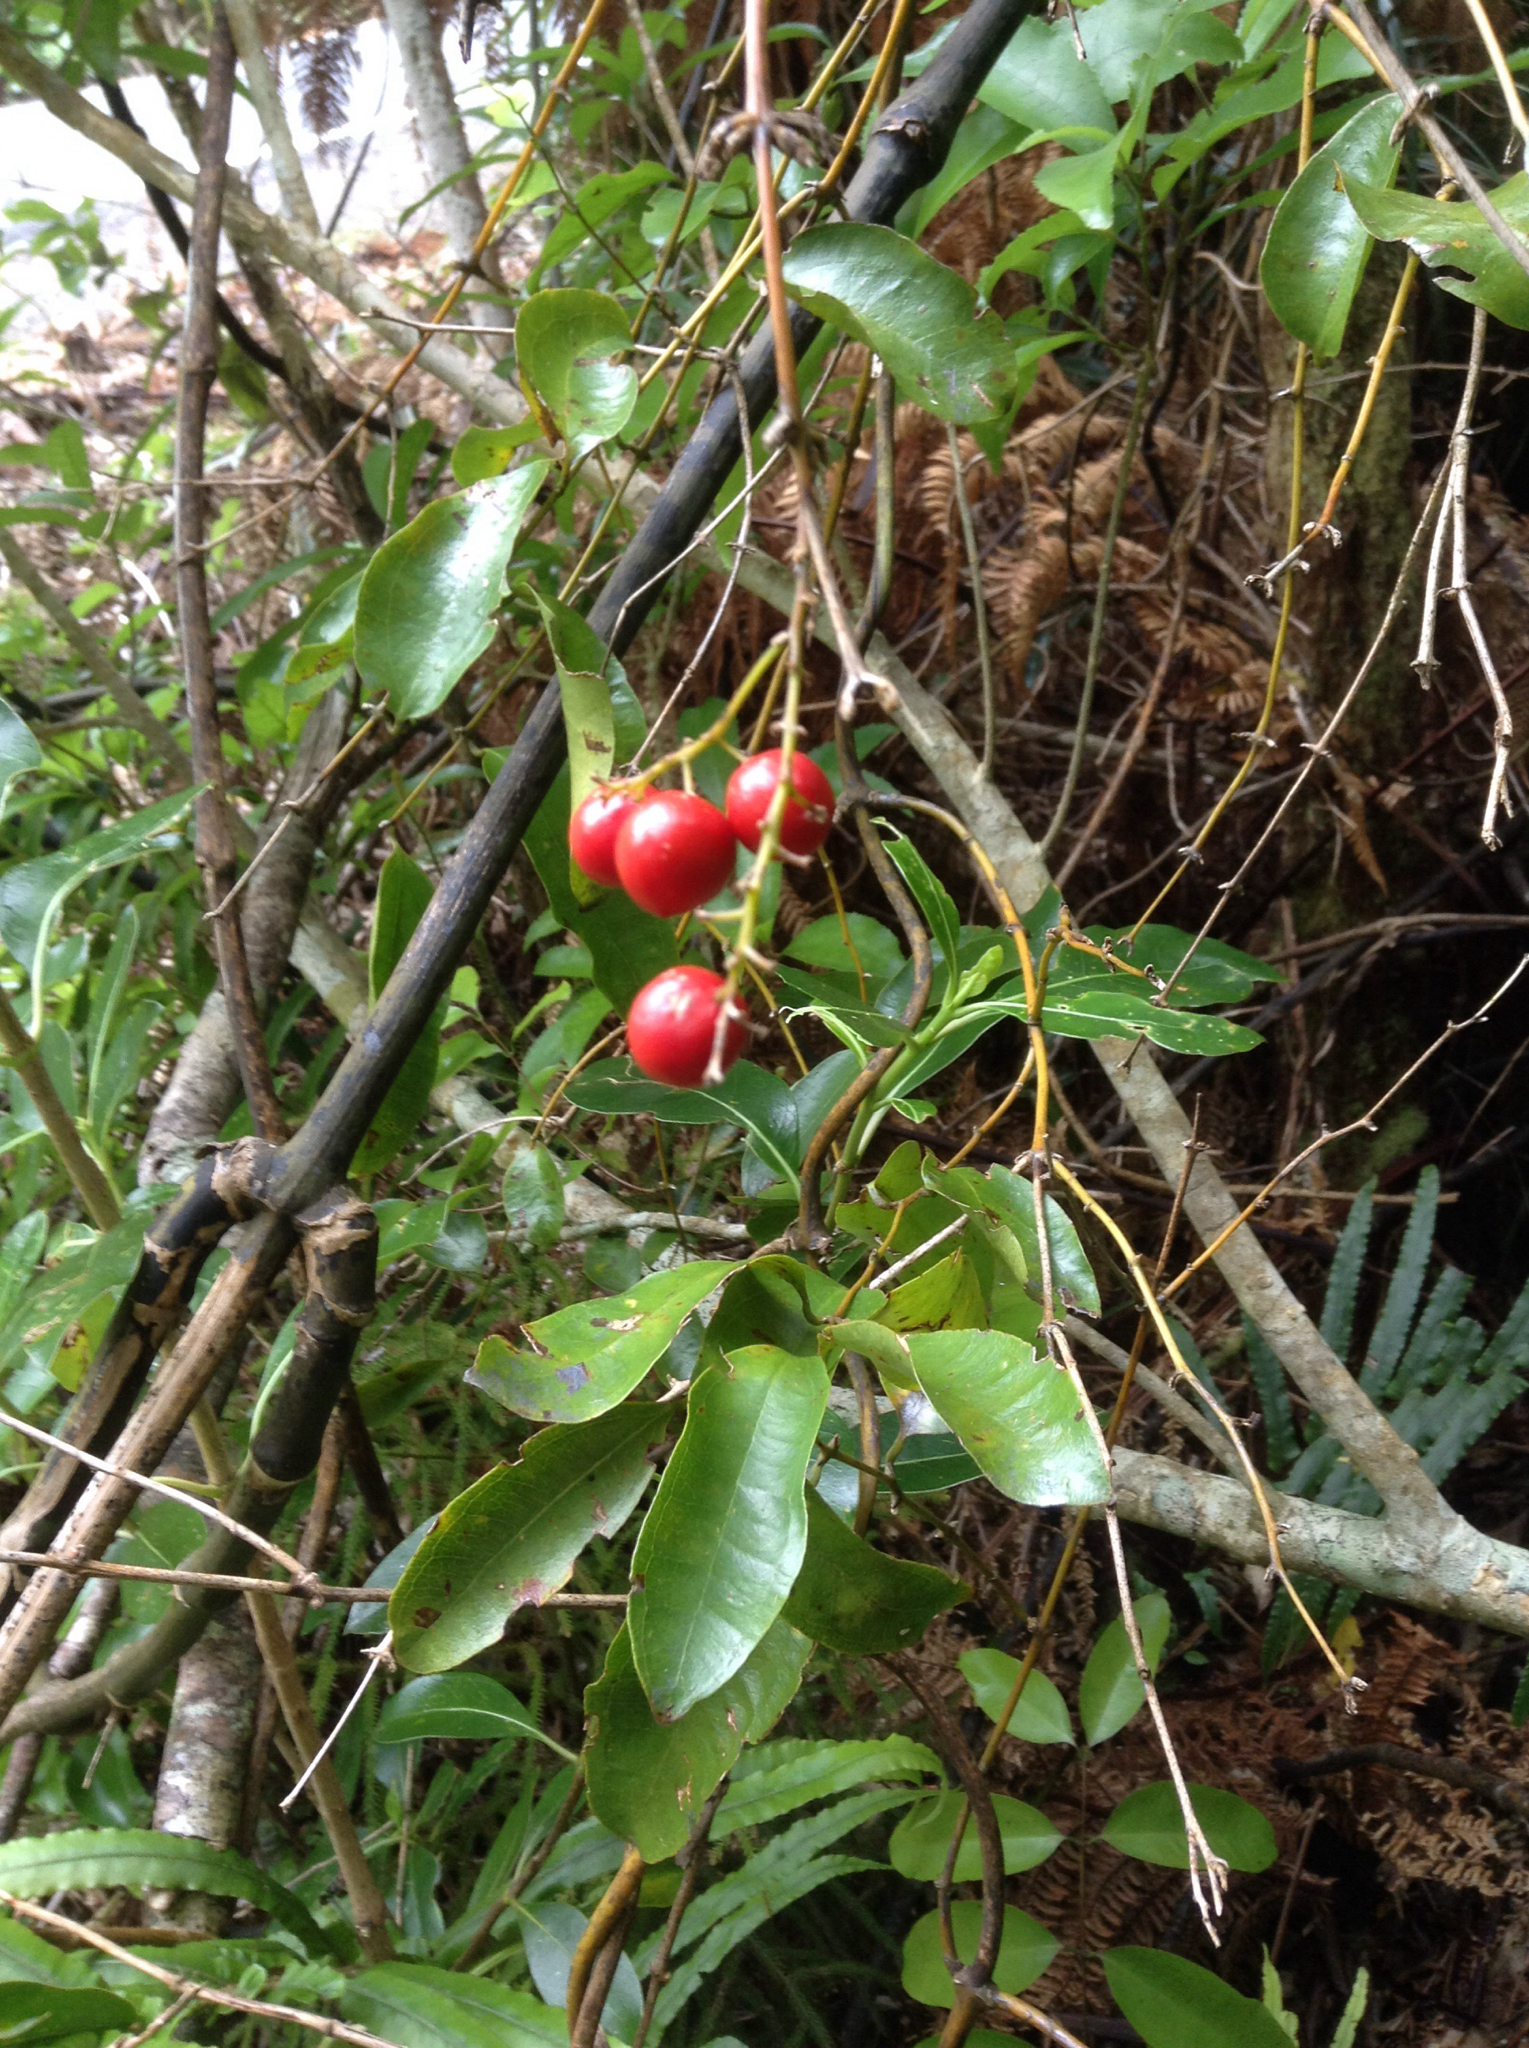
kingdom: Plantae
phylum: Tracheophyta
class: Liliopsida
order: Liliales
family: Ripogonaceae
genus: Ripogonum
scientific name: Ripogonum scandens
